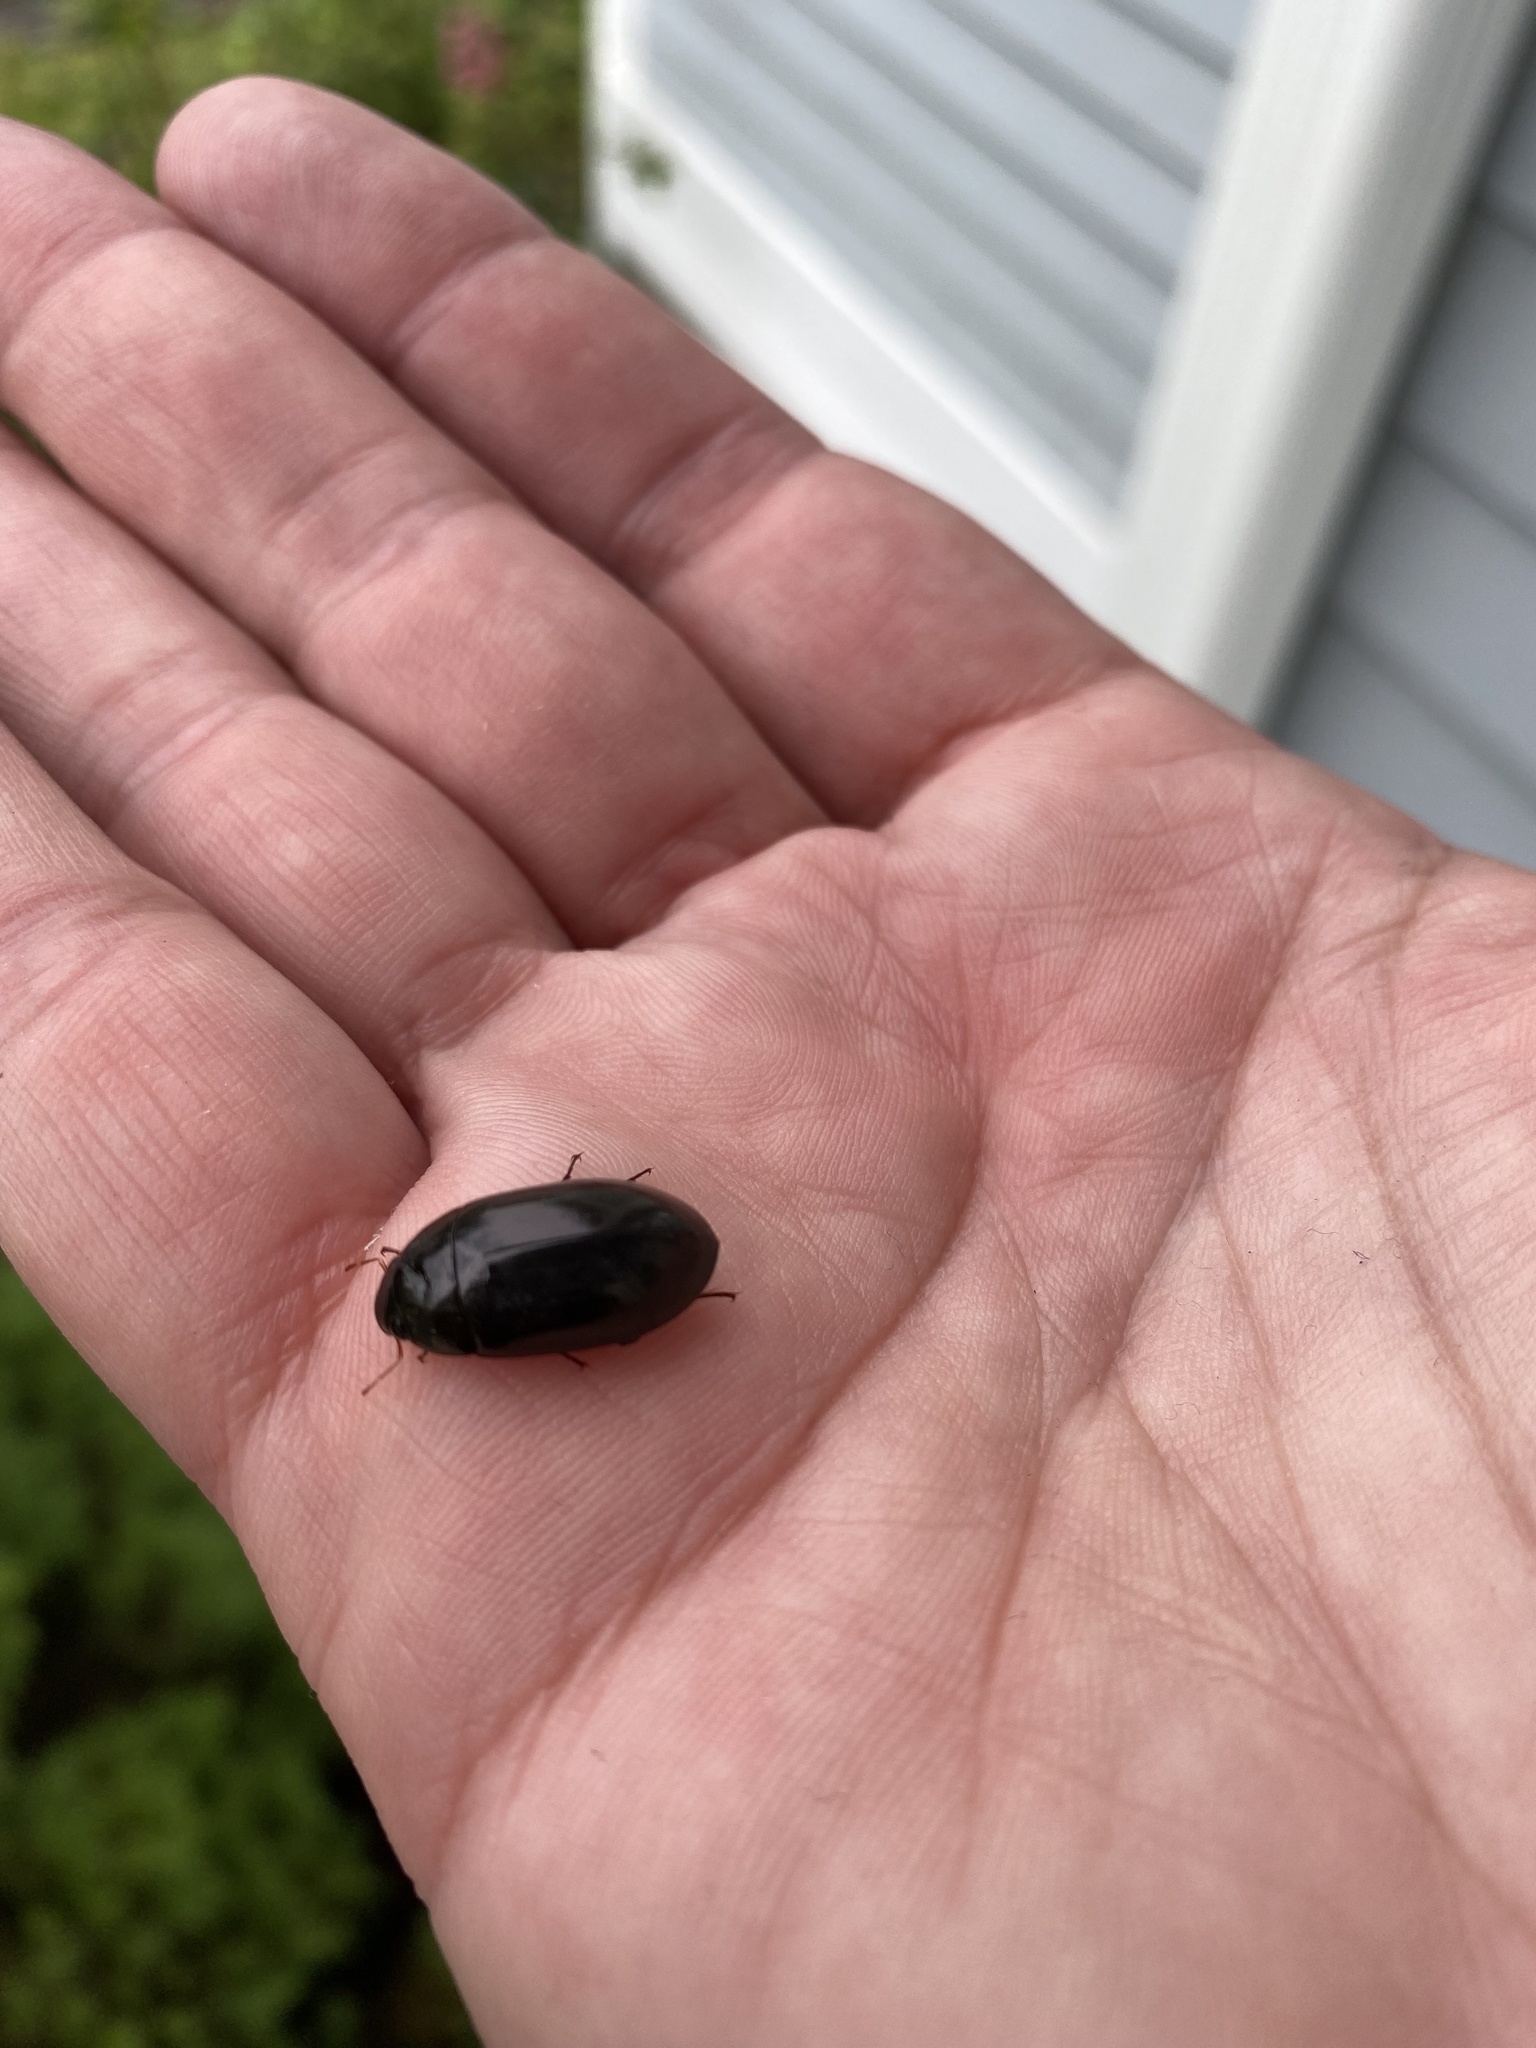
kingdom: Animalia
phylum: Arthropoda
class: Insecta
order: Coleoptera
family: Hydrophilidae
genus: Hydrochara
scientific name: Hydrochara
